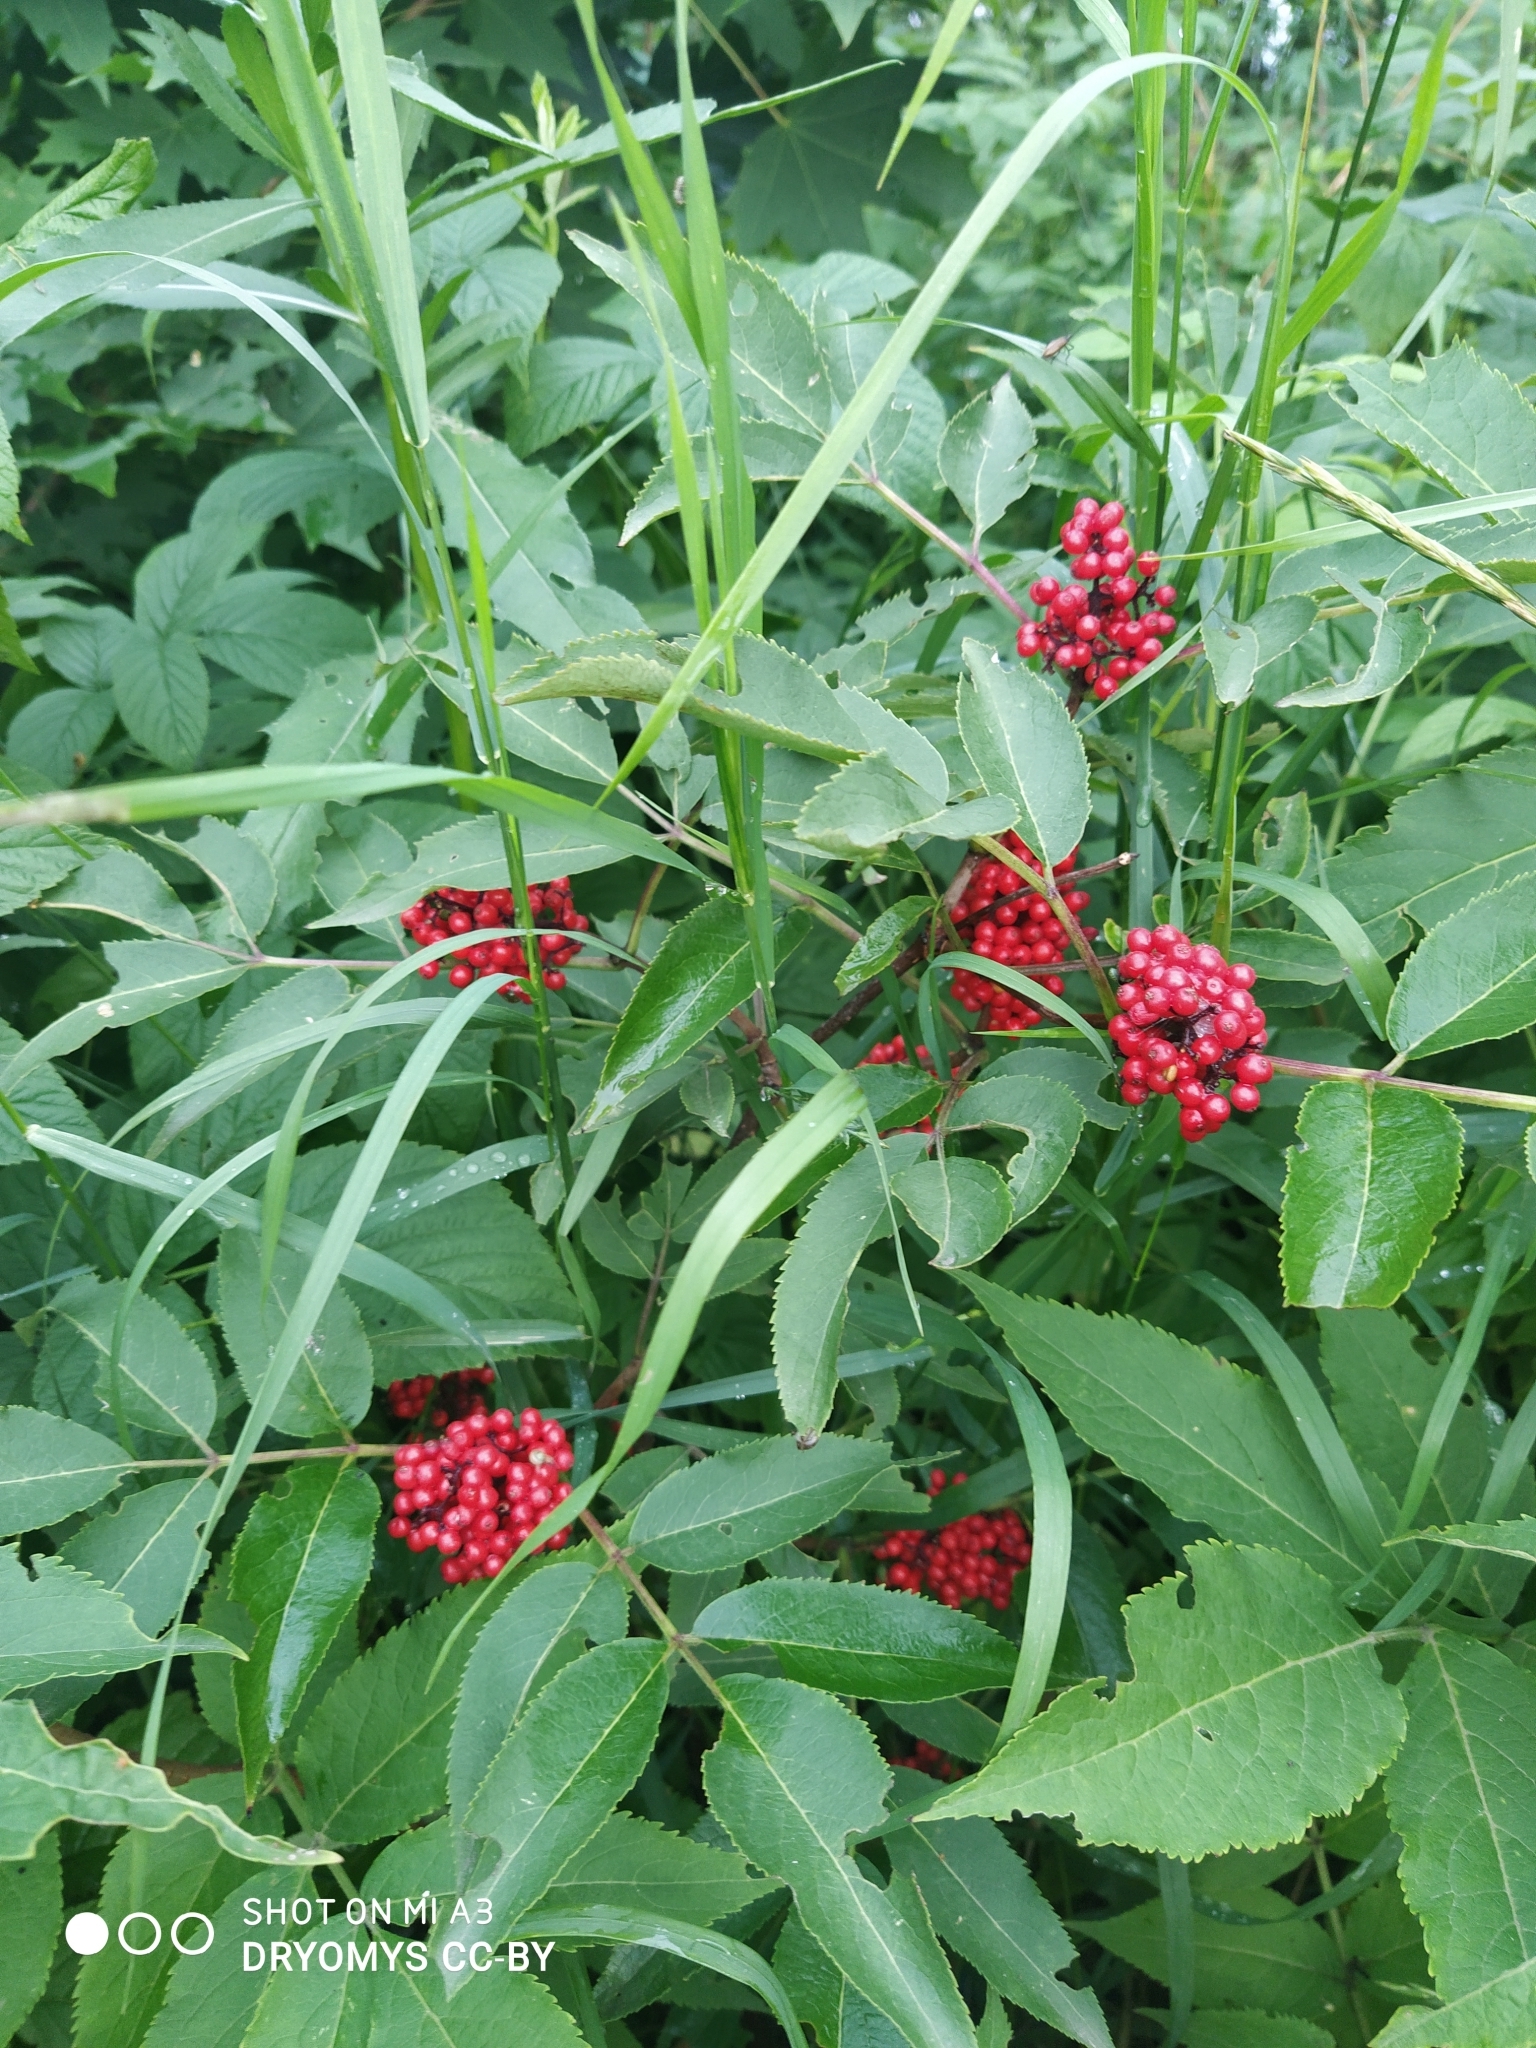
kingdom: Plantae
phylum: Tracheophyta
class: Magnoliopsida
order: Dipsacales
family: Viburnaceae
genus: Sambucus
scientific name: Sambucus racemosa
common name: Red-berried elder
